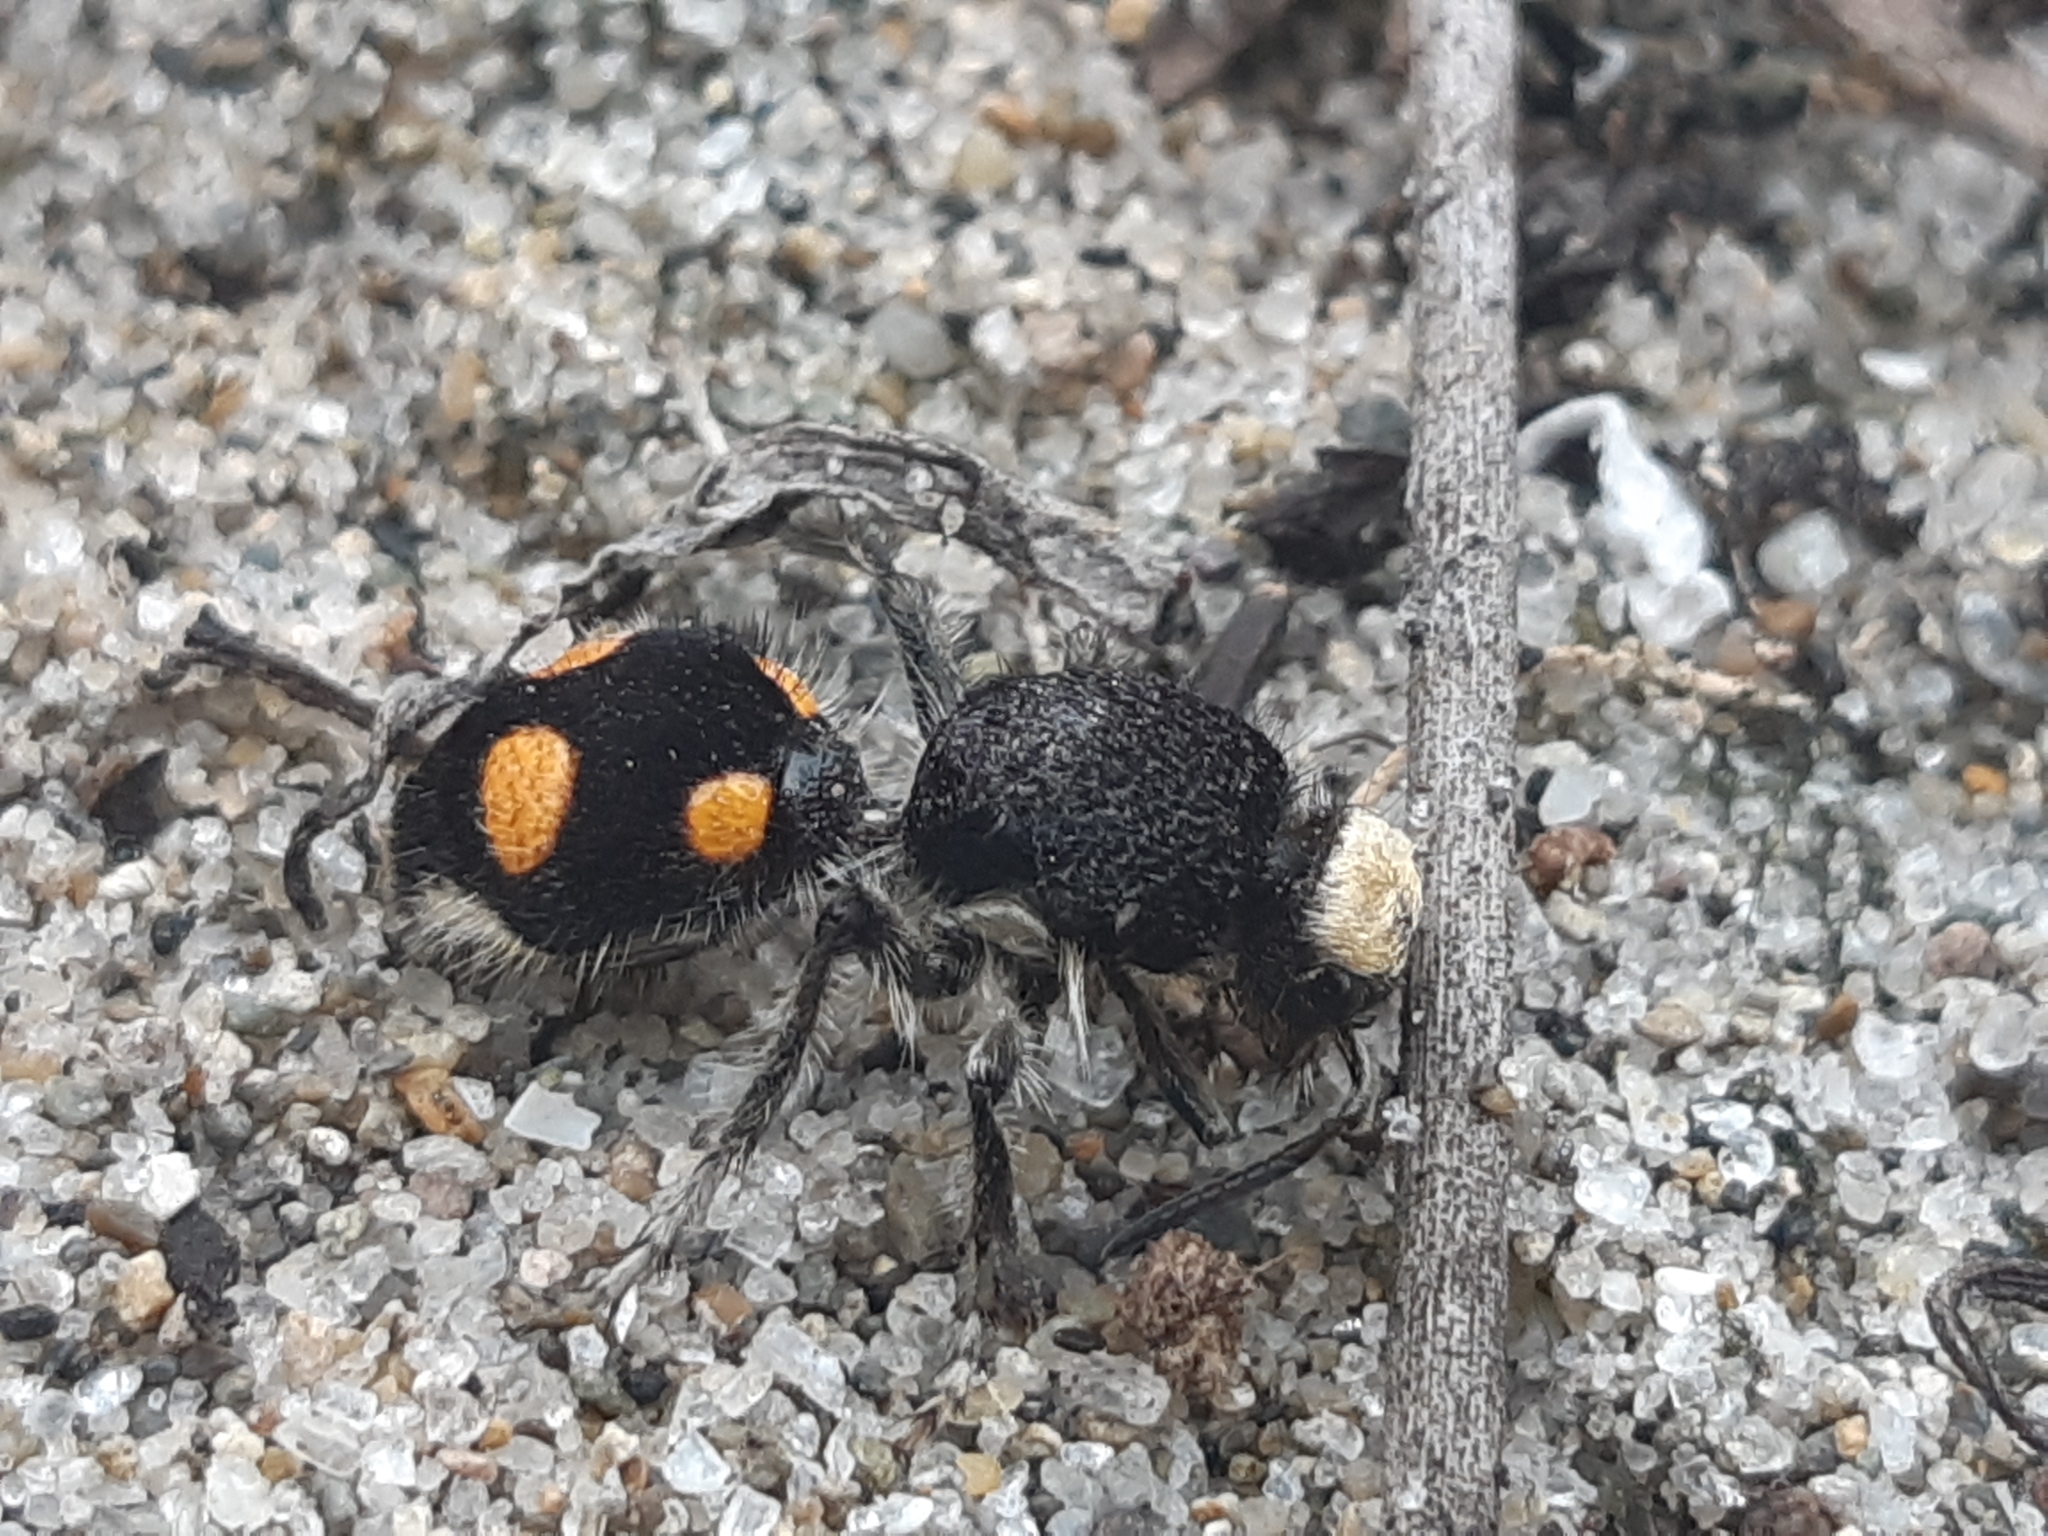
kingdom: Animalia
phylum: Arthropoda
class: Insecta
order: Hymenoptera
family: Mutillidae
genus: Traumatomutilla
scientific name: Traumatomutilla vitelligera
